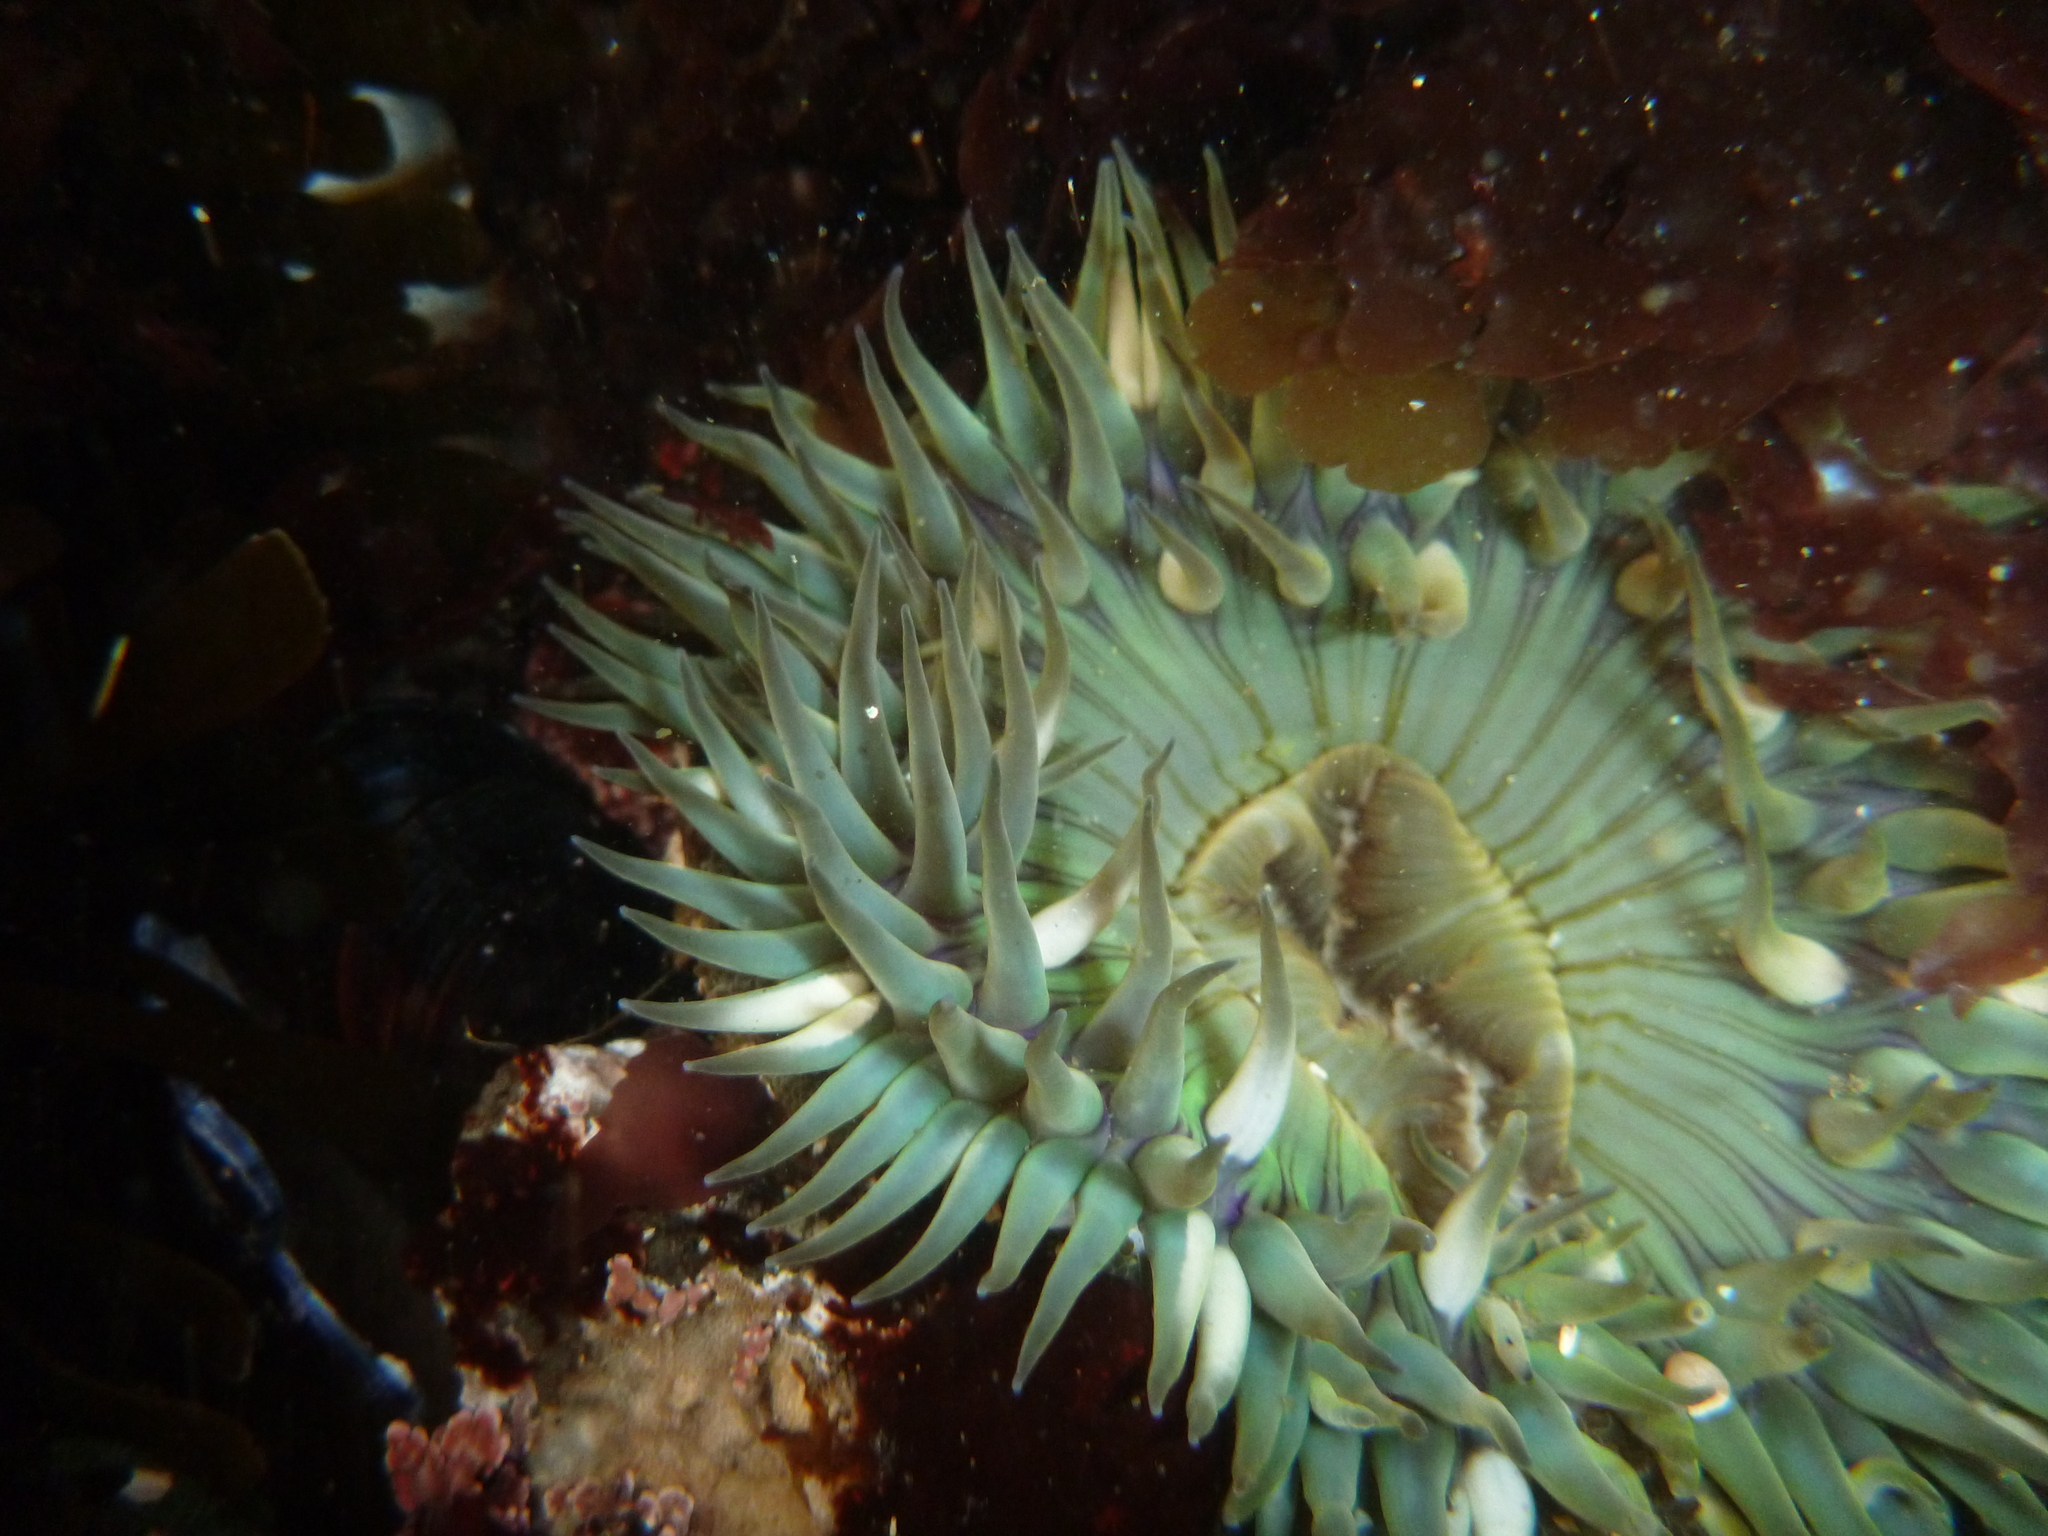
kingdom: Animalia
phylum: Cnidaria
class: Anthozoa
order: Actiniaria
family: Actiniidae
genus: Anthopleura
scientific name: Anthopleura sola
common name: Sun anemone
